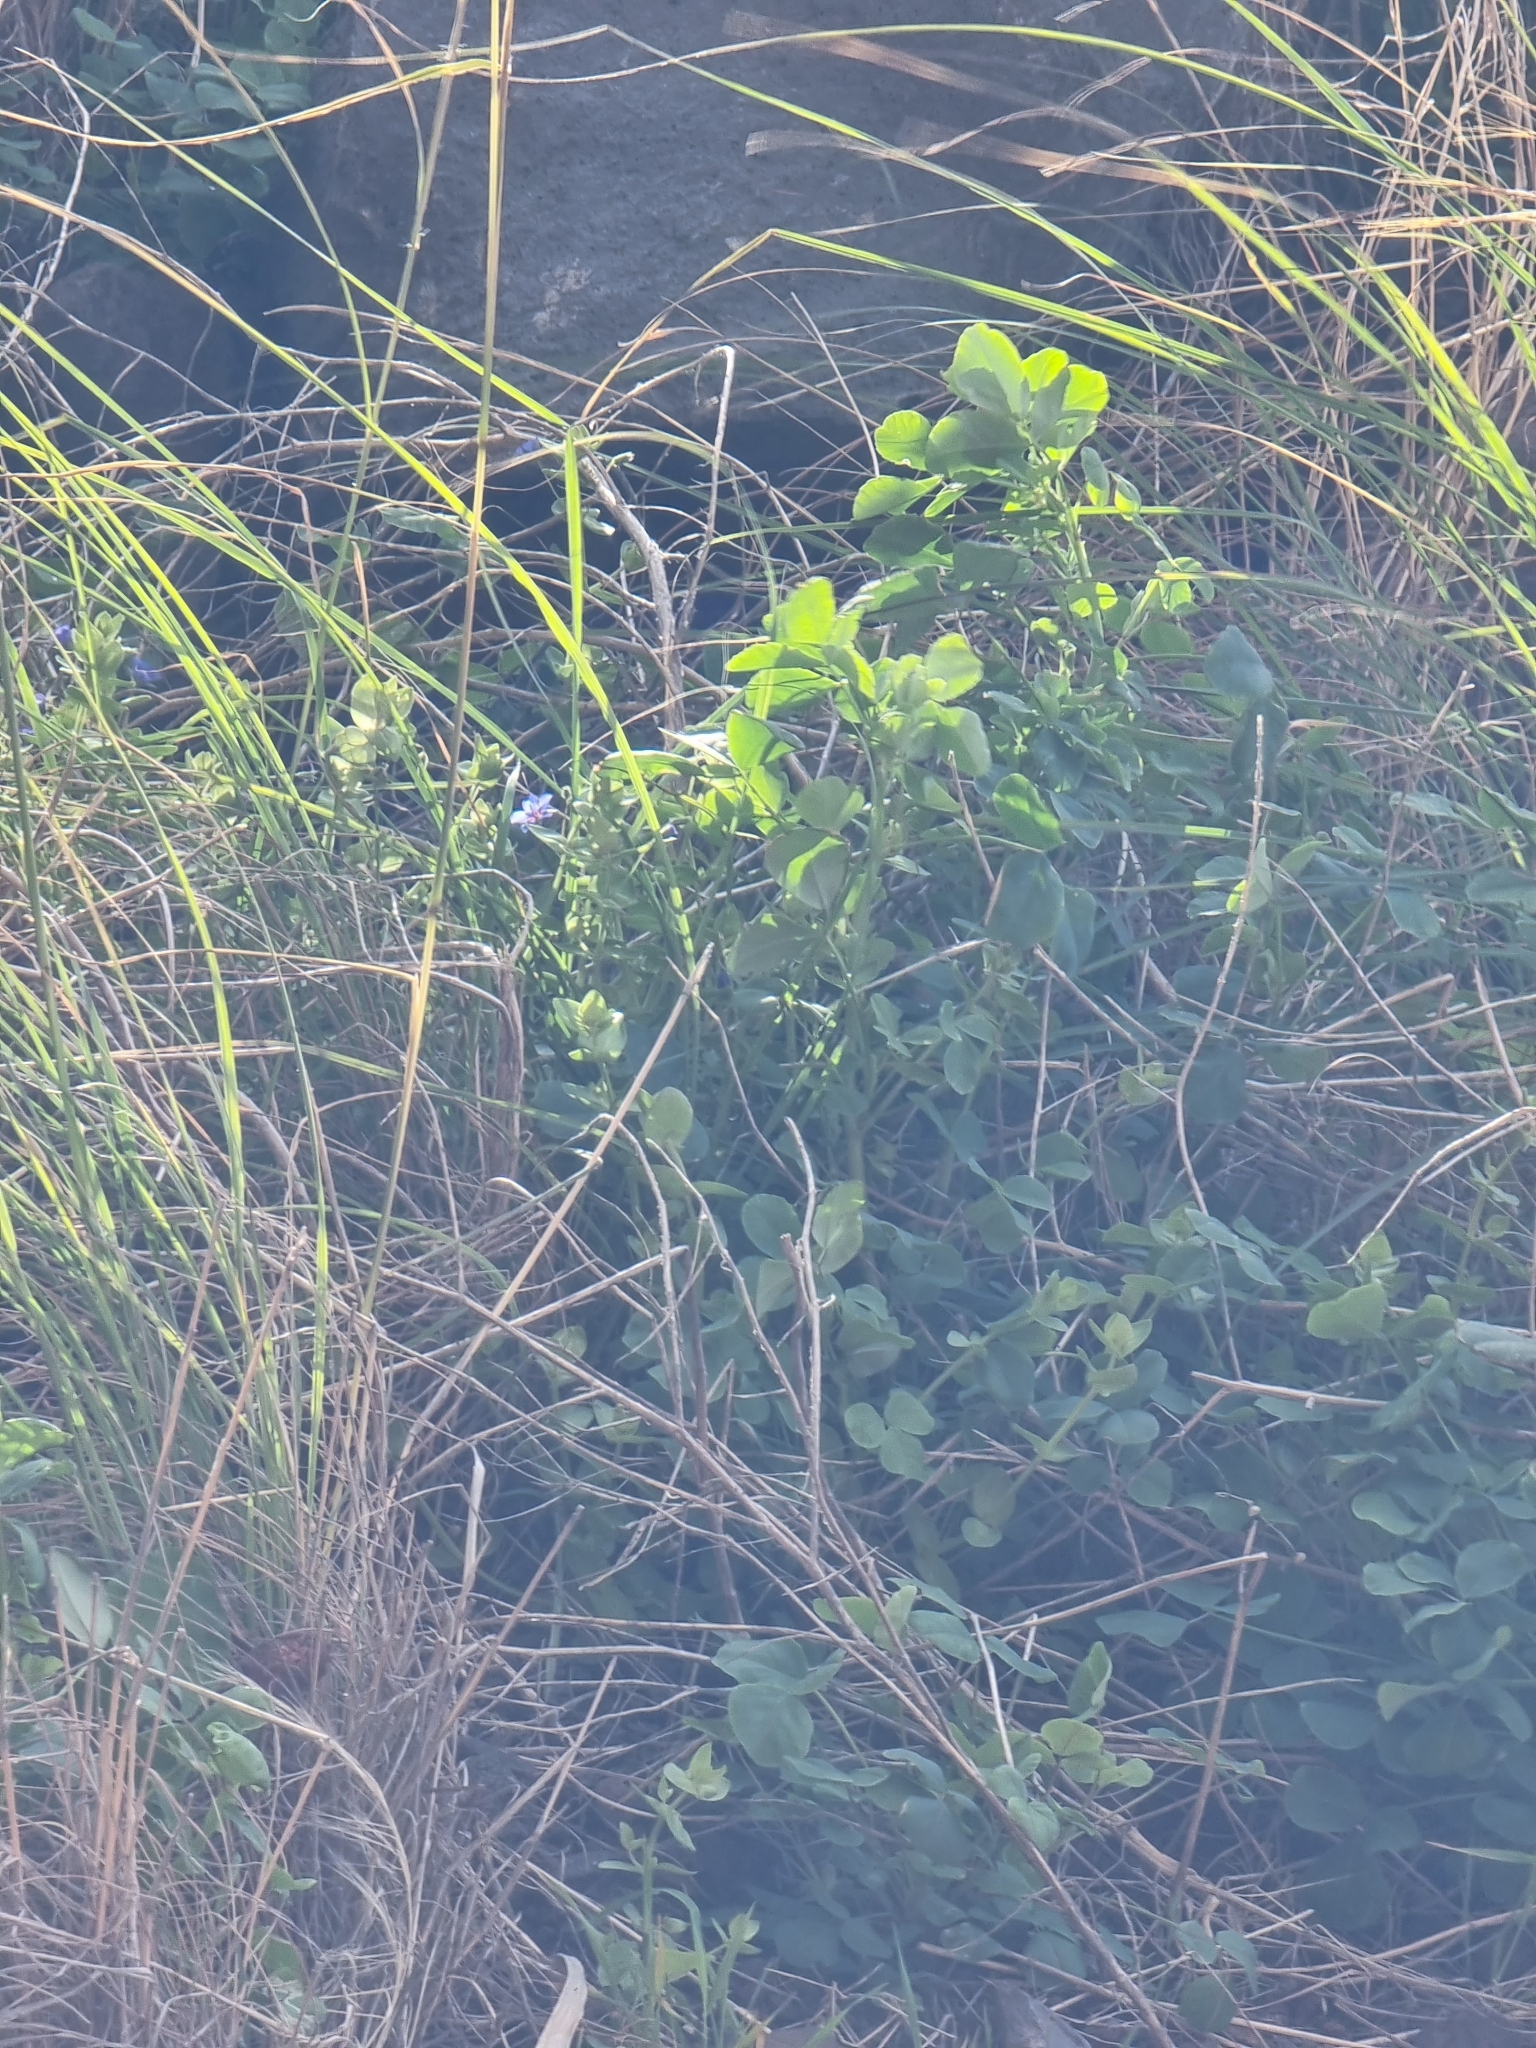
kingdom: Plantae
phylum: Tracheophyta
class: Magnoliopsida
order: Ericales
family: Primulaceae
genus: Lysimachia
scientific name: Lysimachia loeflingii
